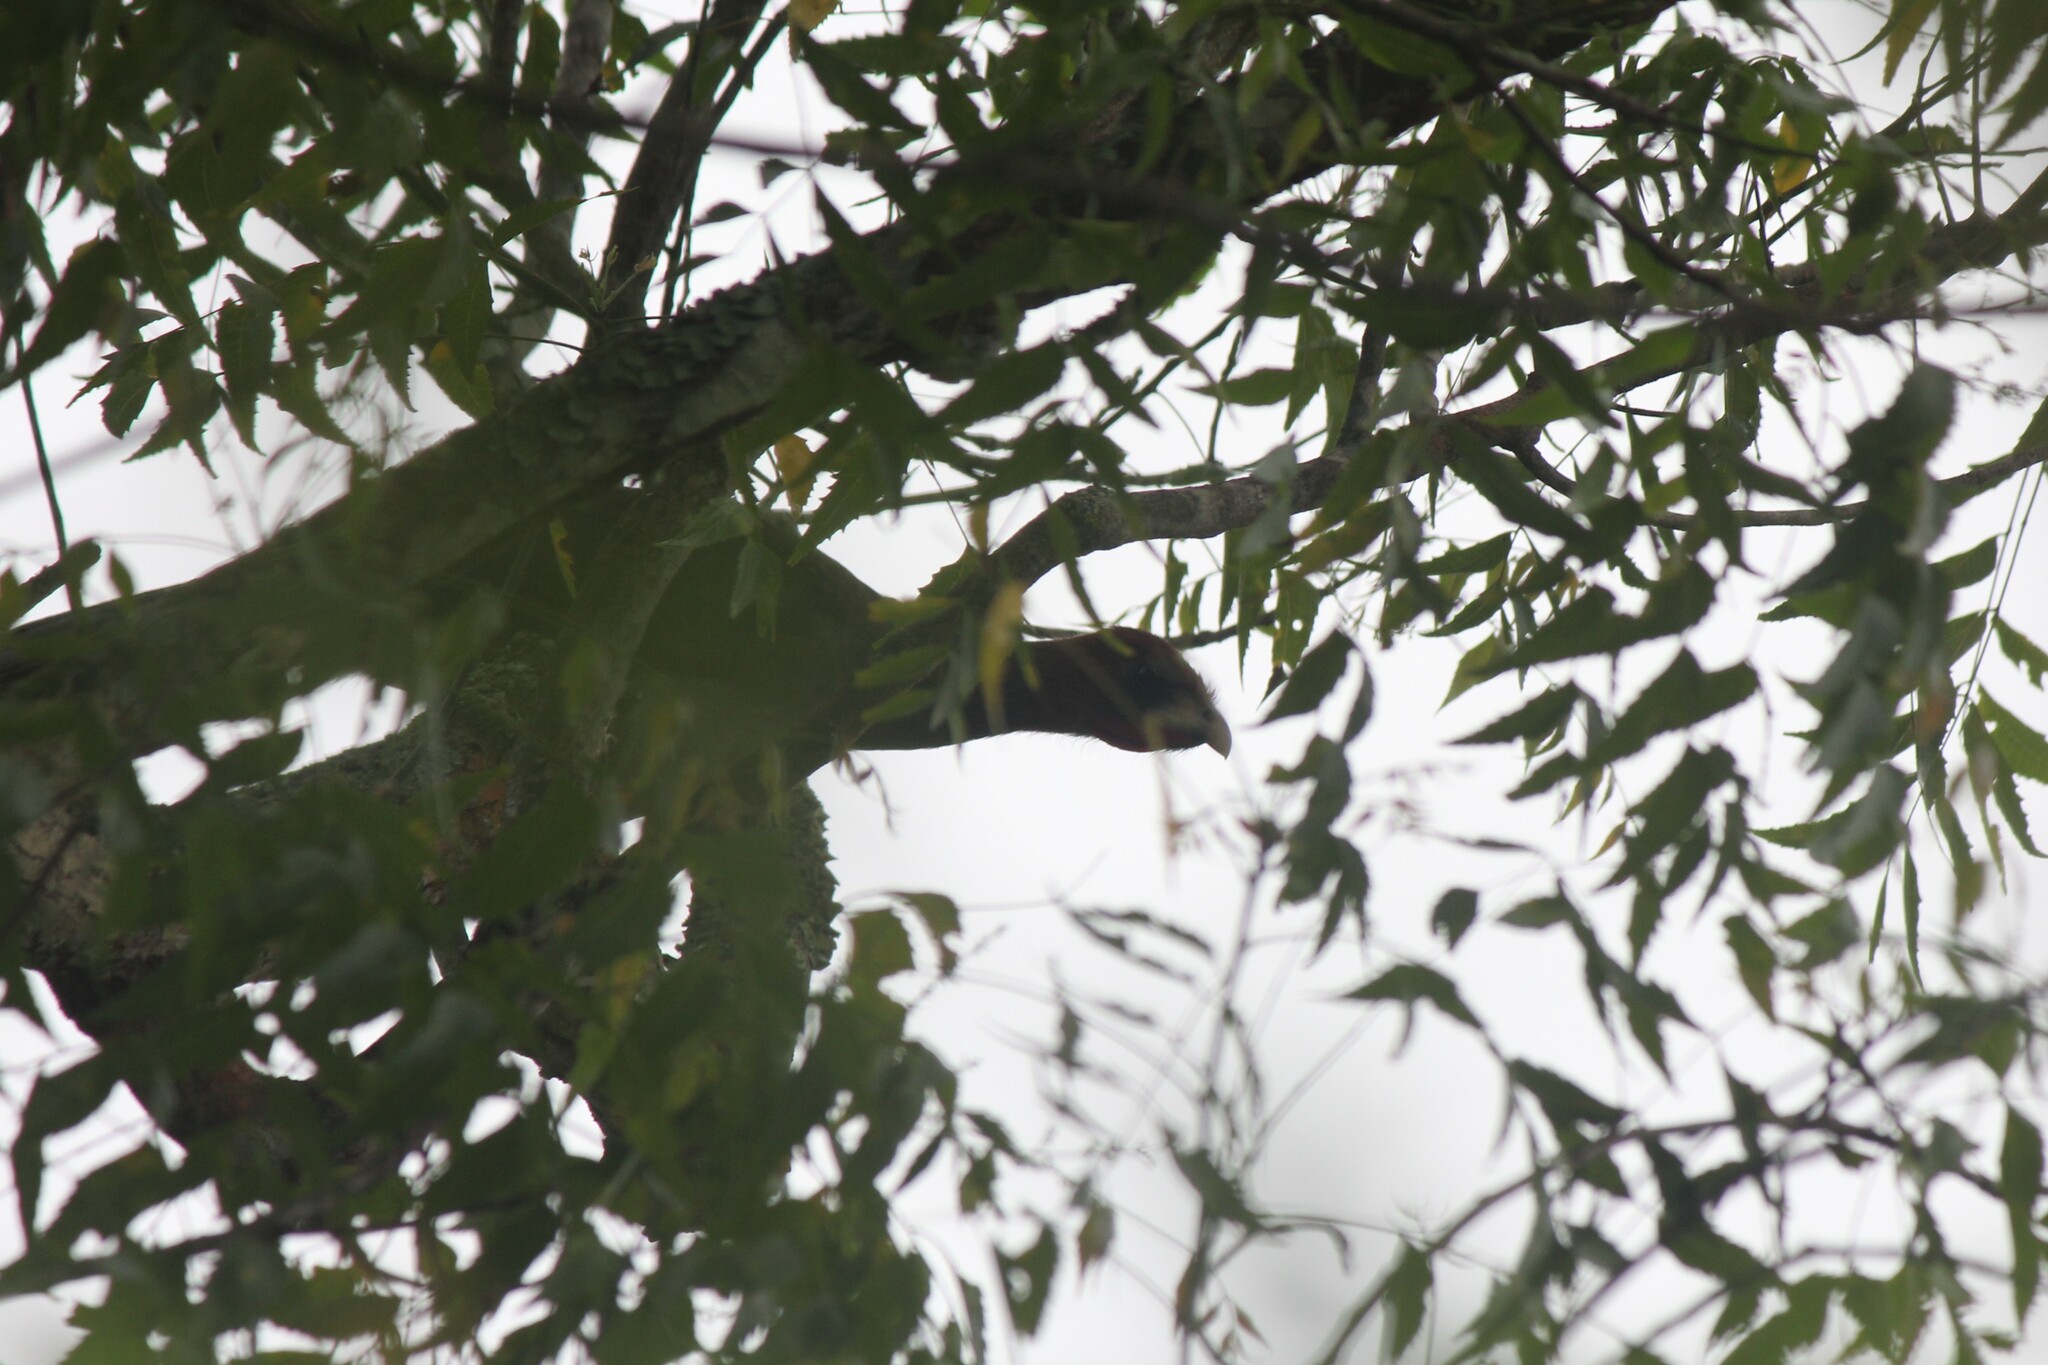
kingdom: Animalia
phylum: Chordata
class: Aves
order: Galliformes
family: Cracidae
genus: Ortalis
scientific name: Ortalis erythroptera
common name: Rufous-headed chachalaca
